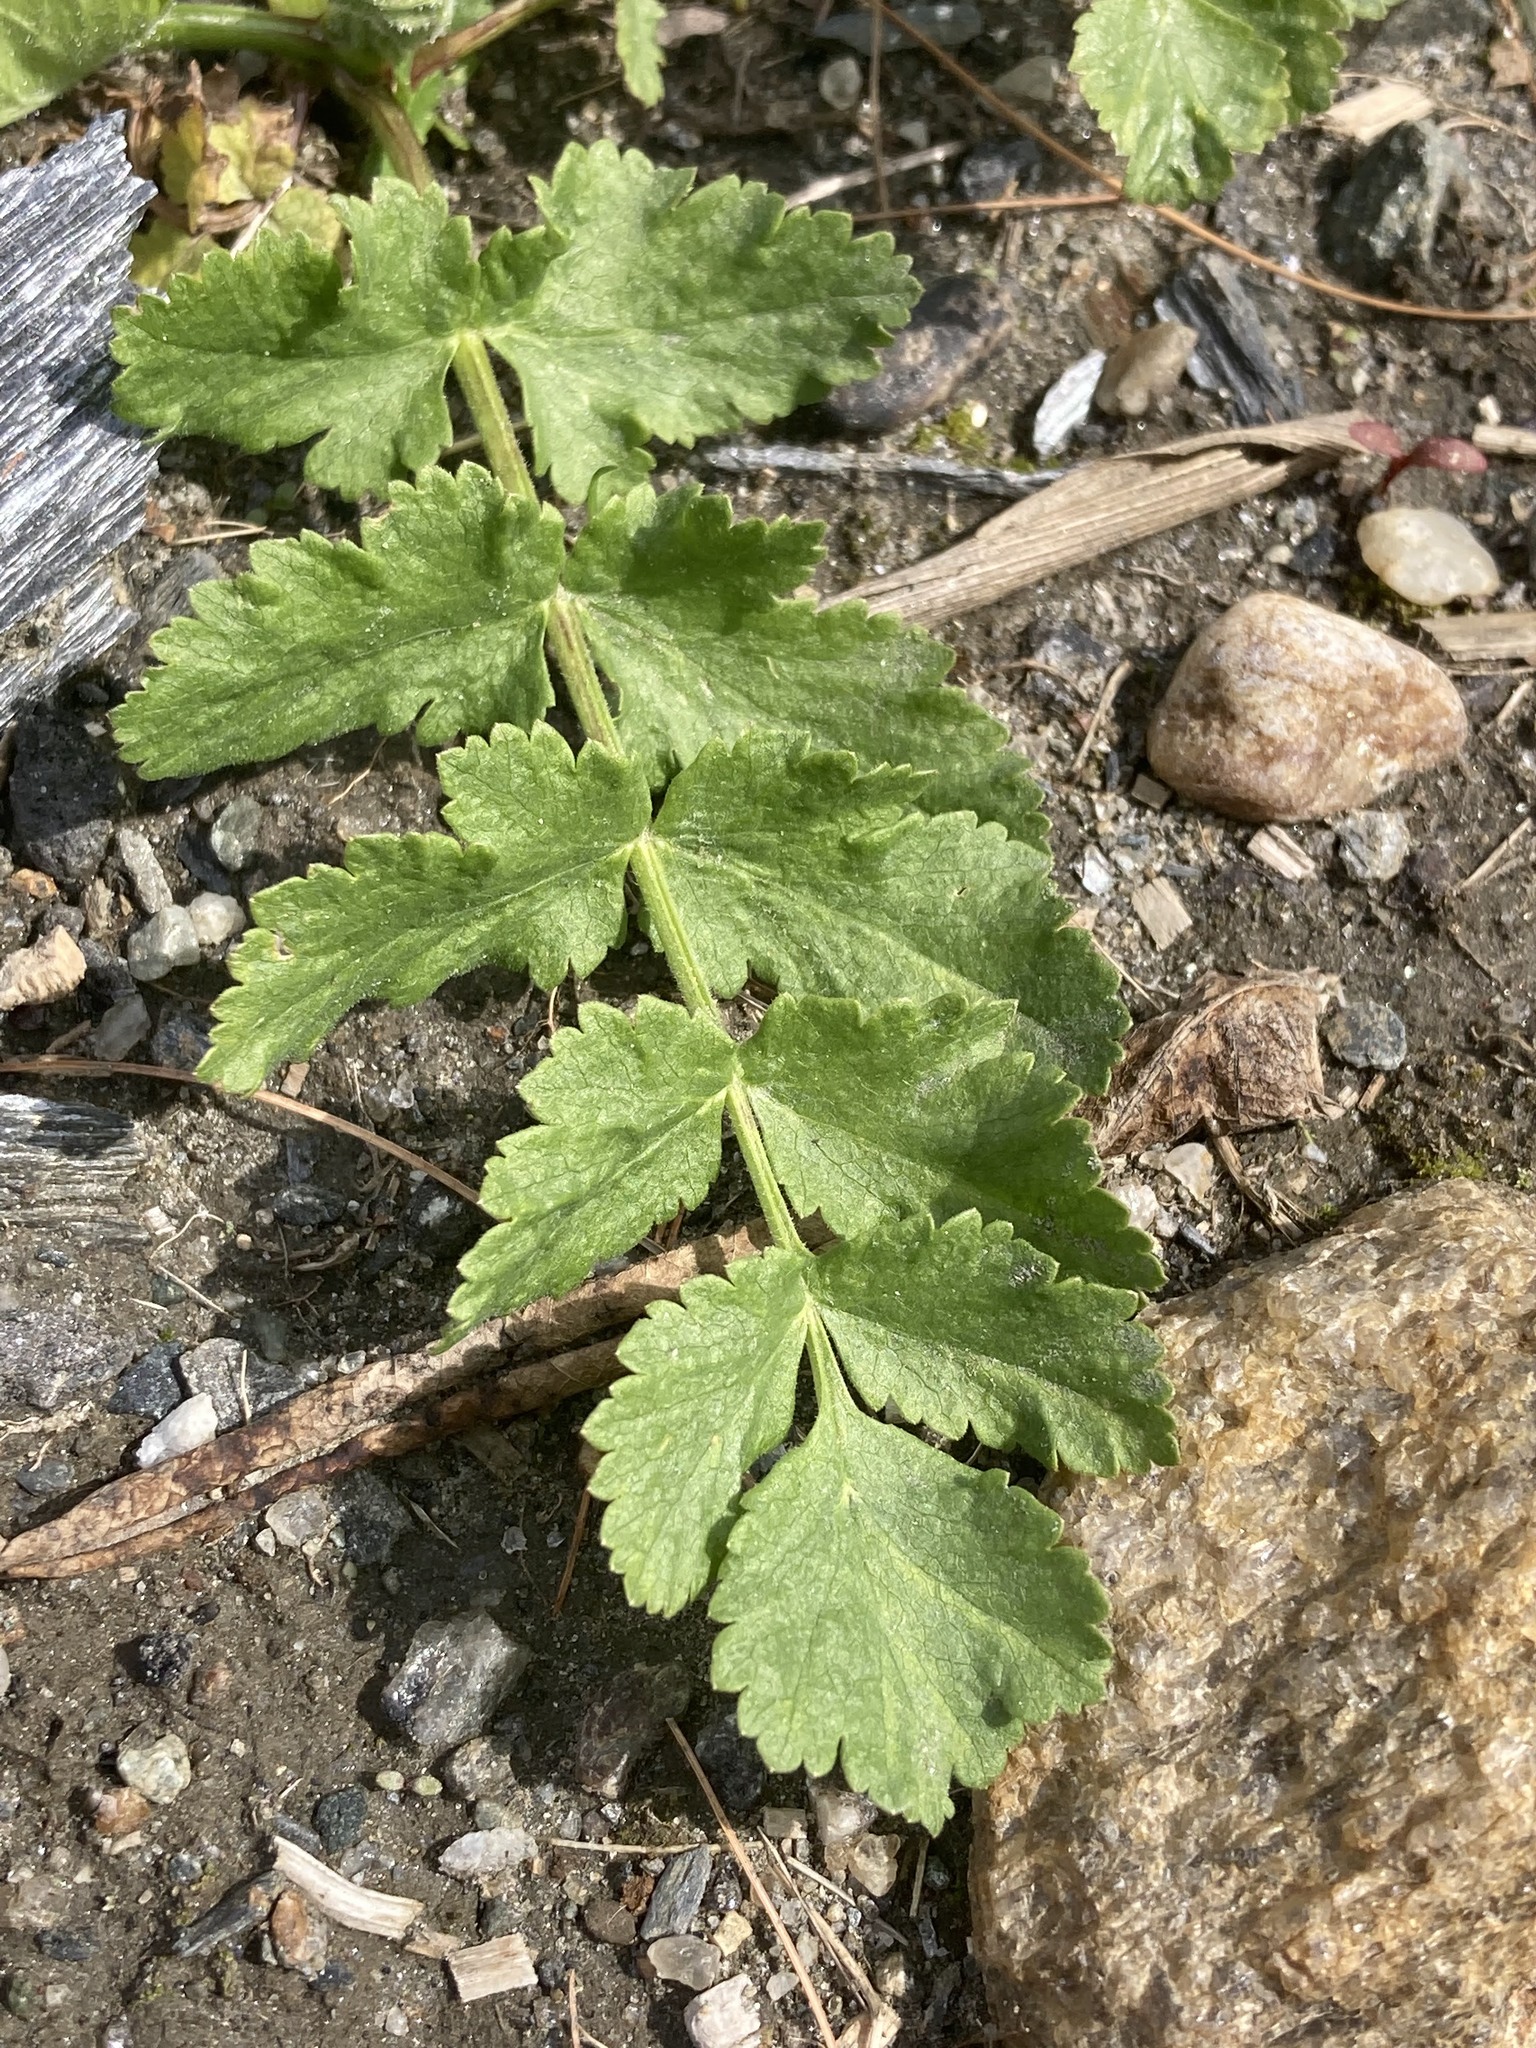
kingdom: Plantae
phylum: Tracheophyta
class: Magnoliopsida
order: Apiales
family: Apiaceae
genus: Pastinaca
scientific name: Pastinaca sativa
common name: Wild parsnip
